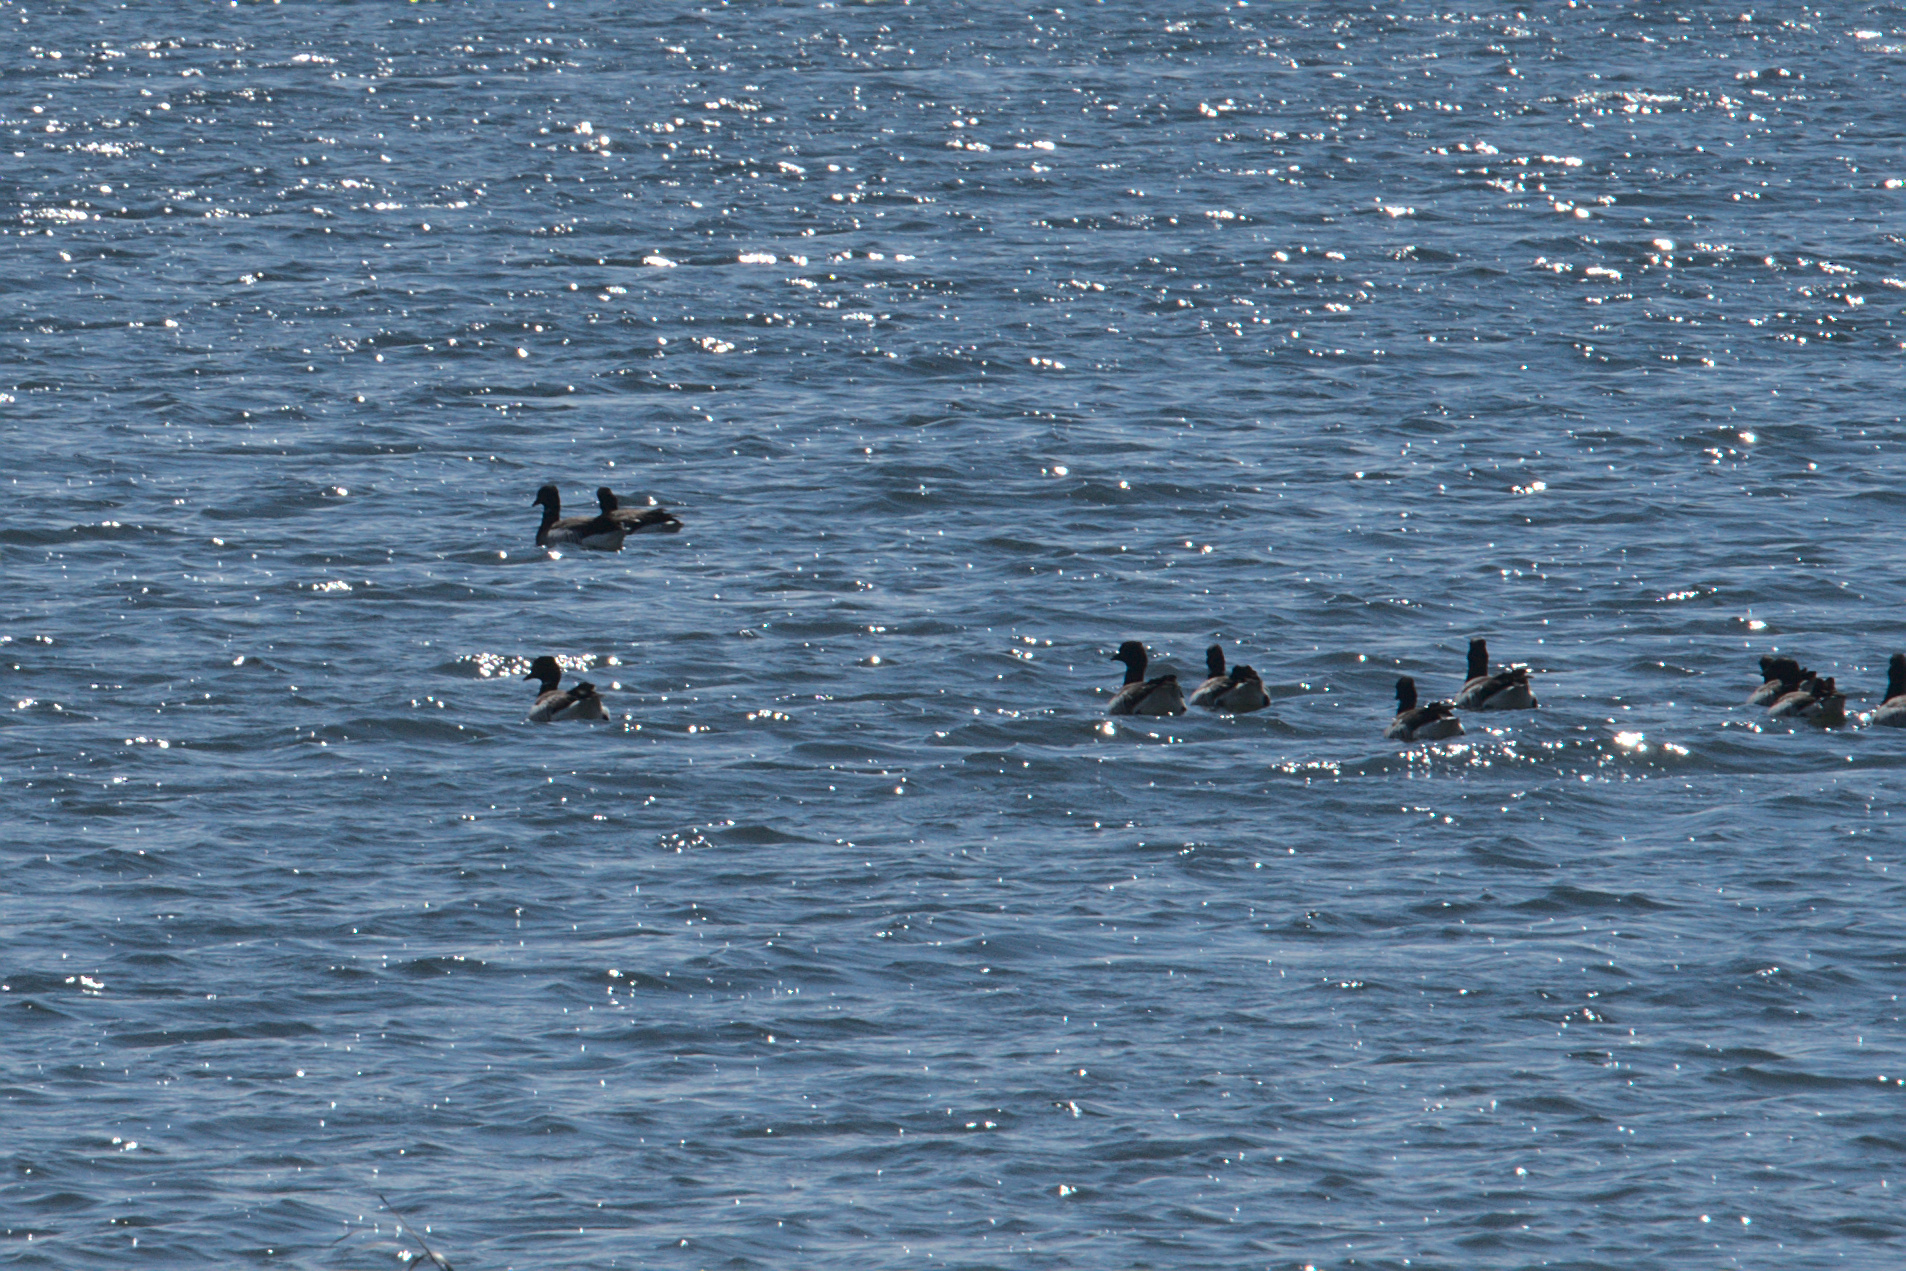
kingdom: Animalia
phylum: Chordata
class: Aves
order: Anseriformes
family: Anatidae
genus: Branta
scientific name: Branta bernicla
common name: Brant goose
